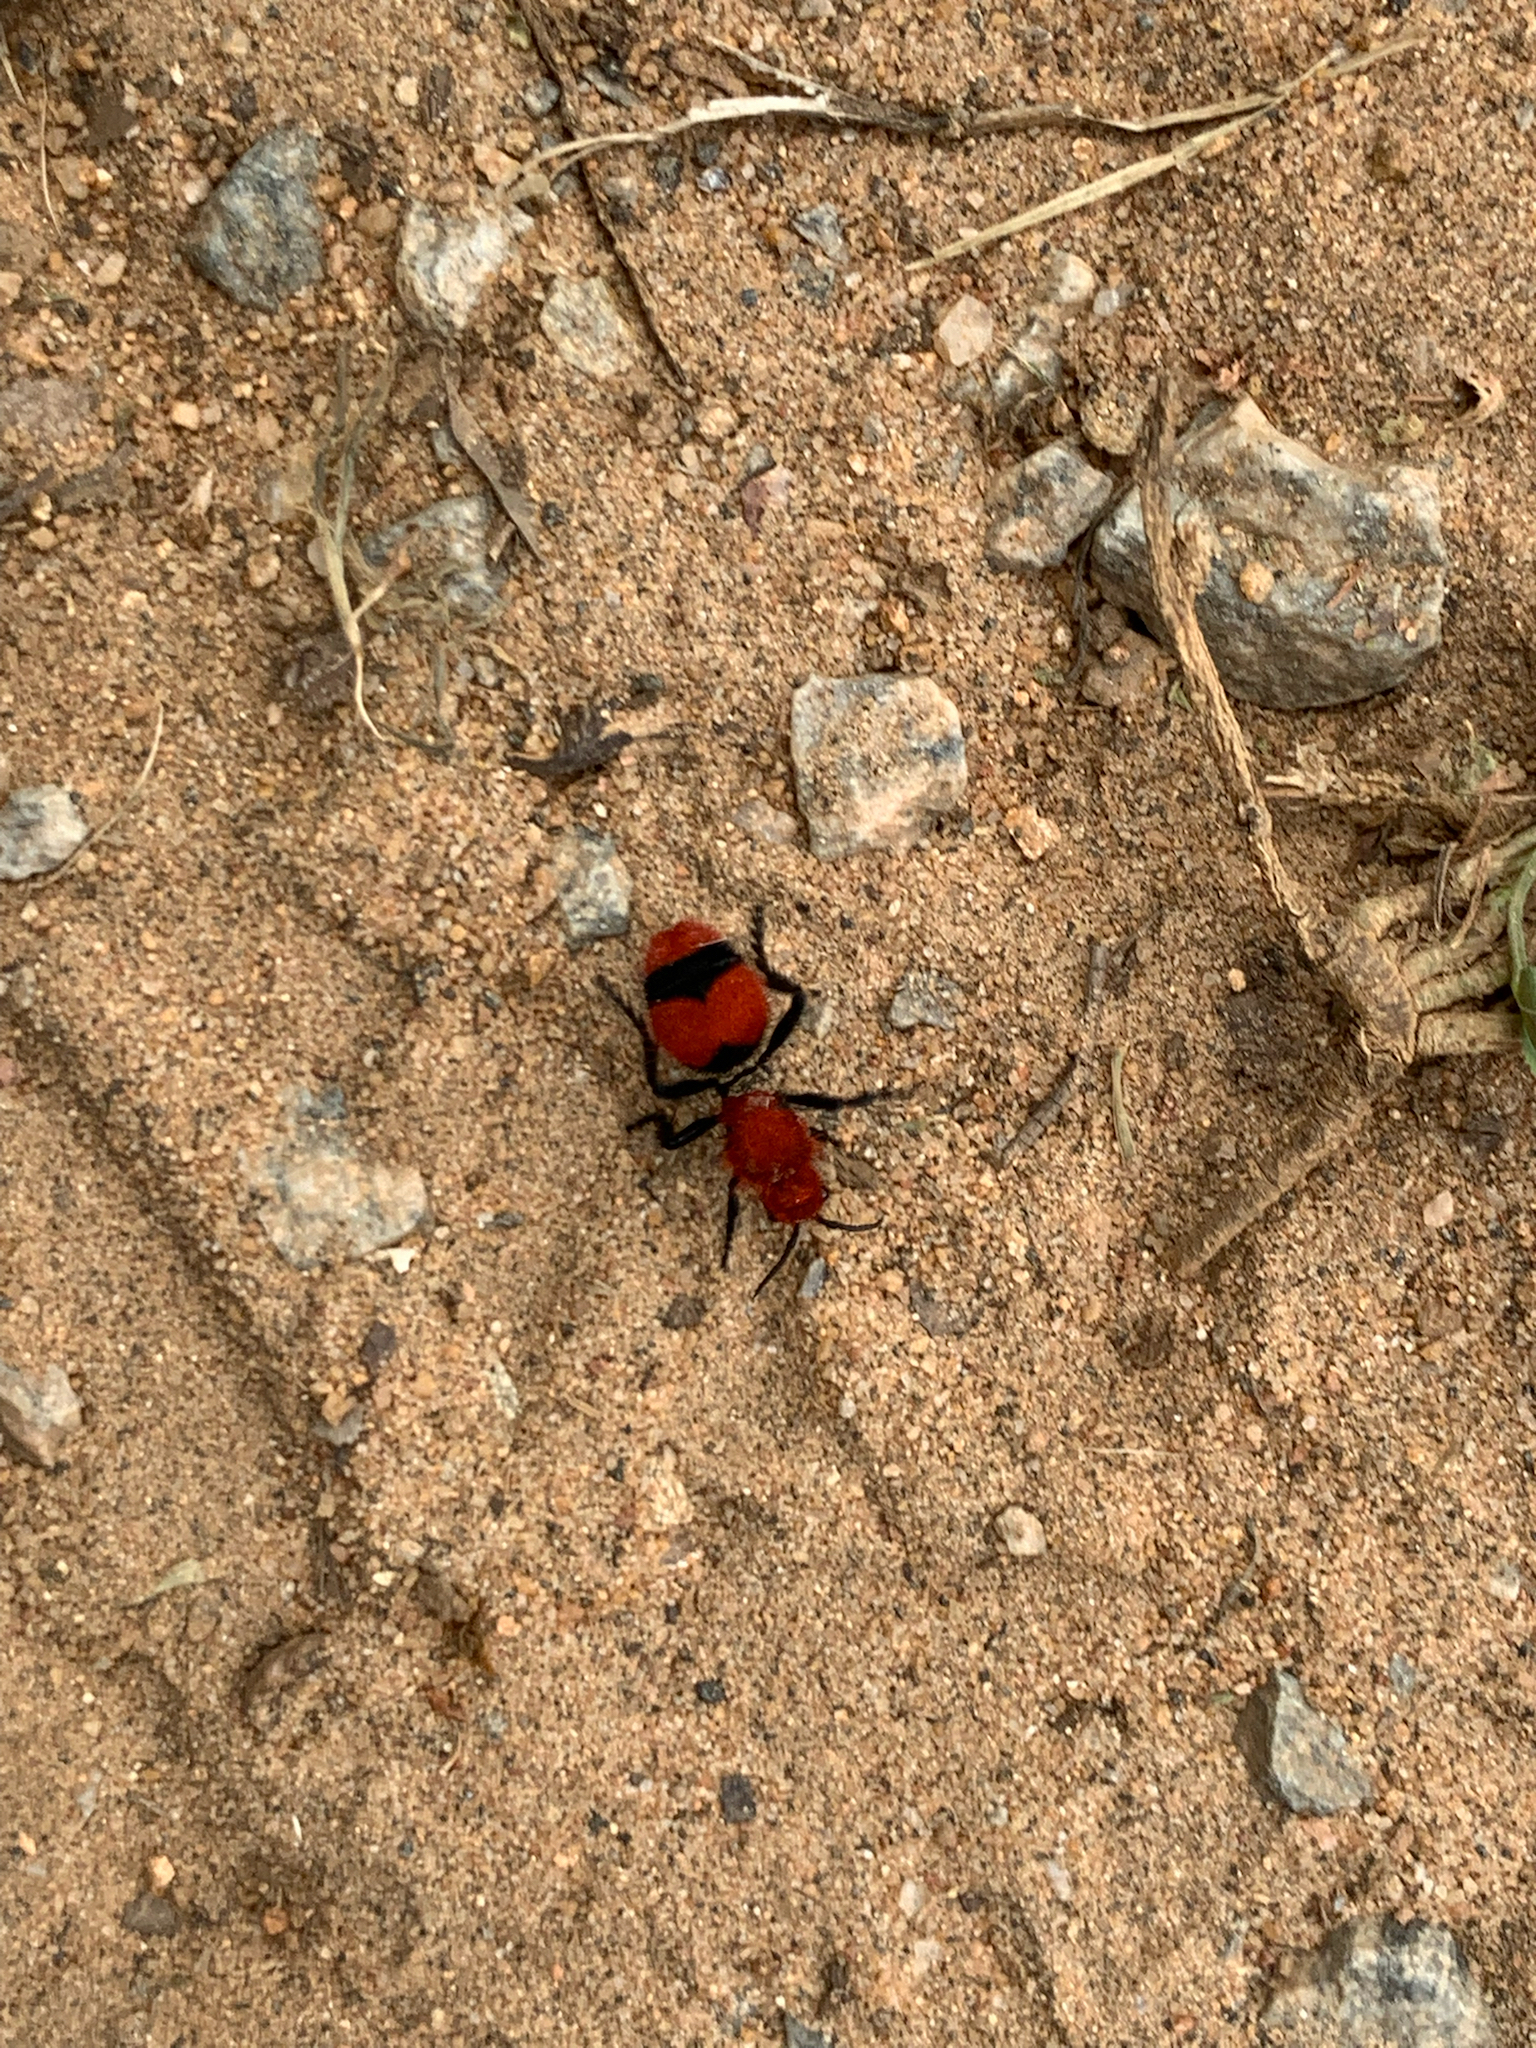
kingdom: Animalia
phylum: Arthropoda
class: Insecta
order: Hymenoptera
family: Mutillidae
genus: Dasymutilla
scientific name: Dasymutilla occidentalis
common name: Common eastern velvet ant
